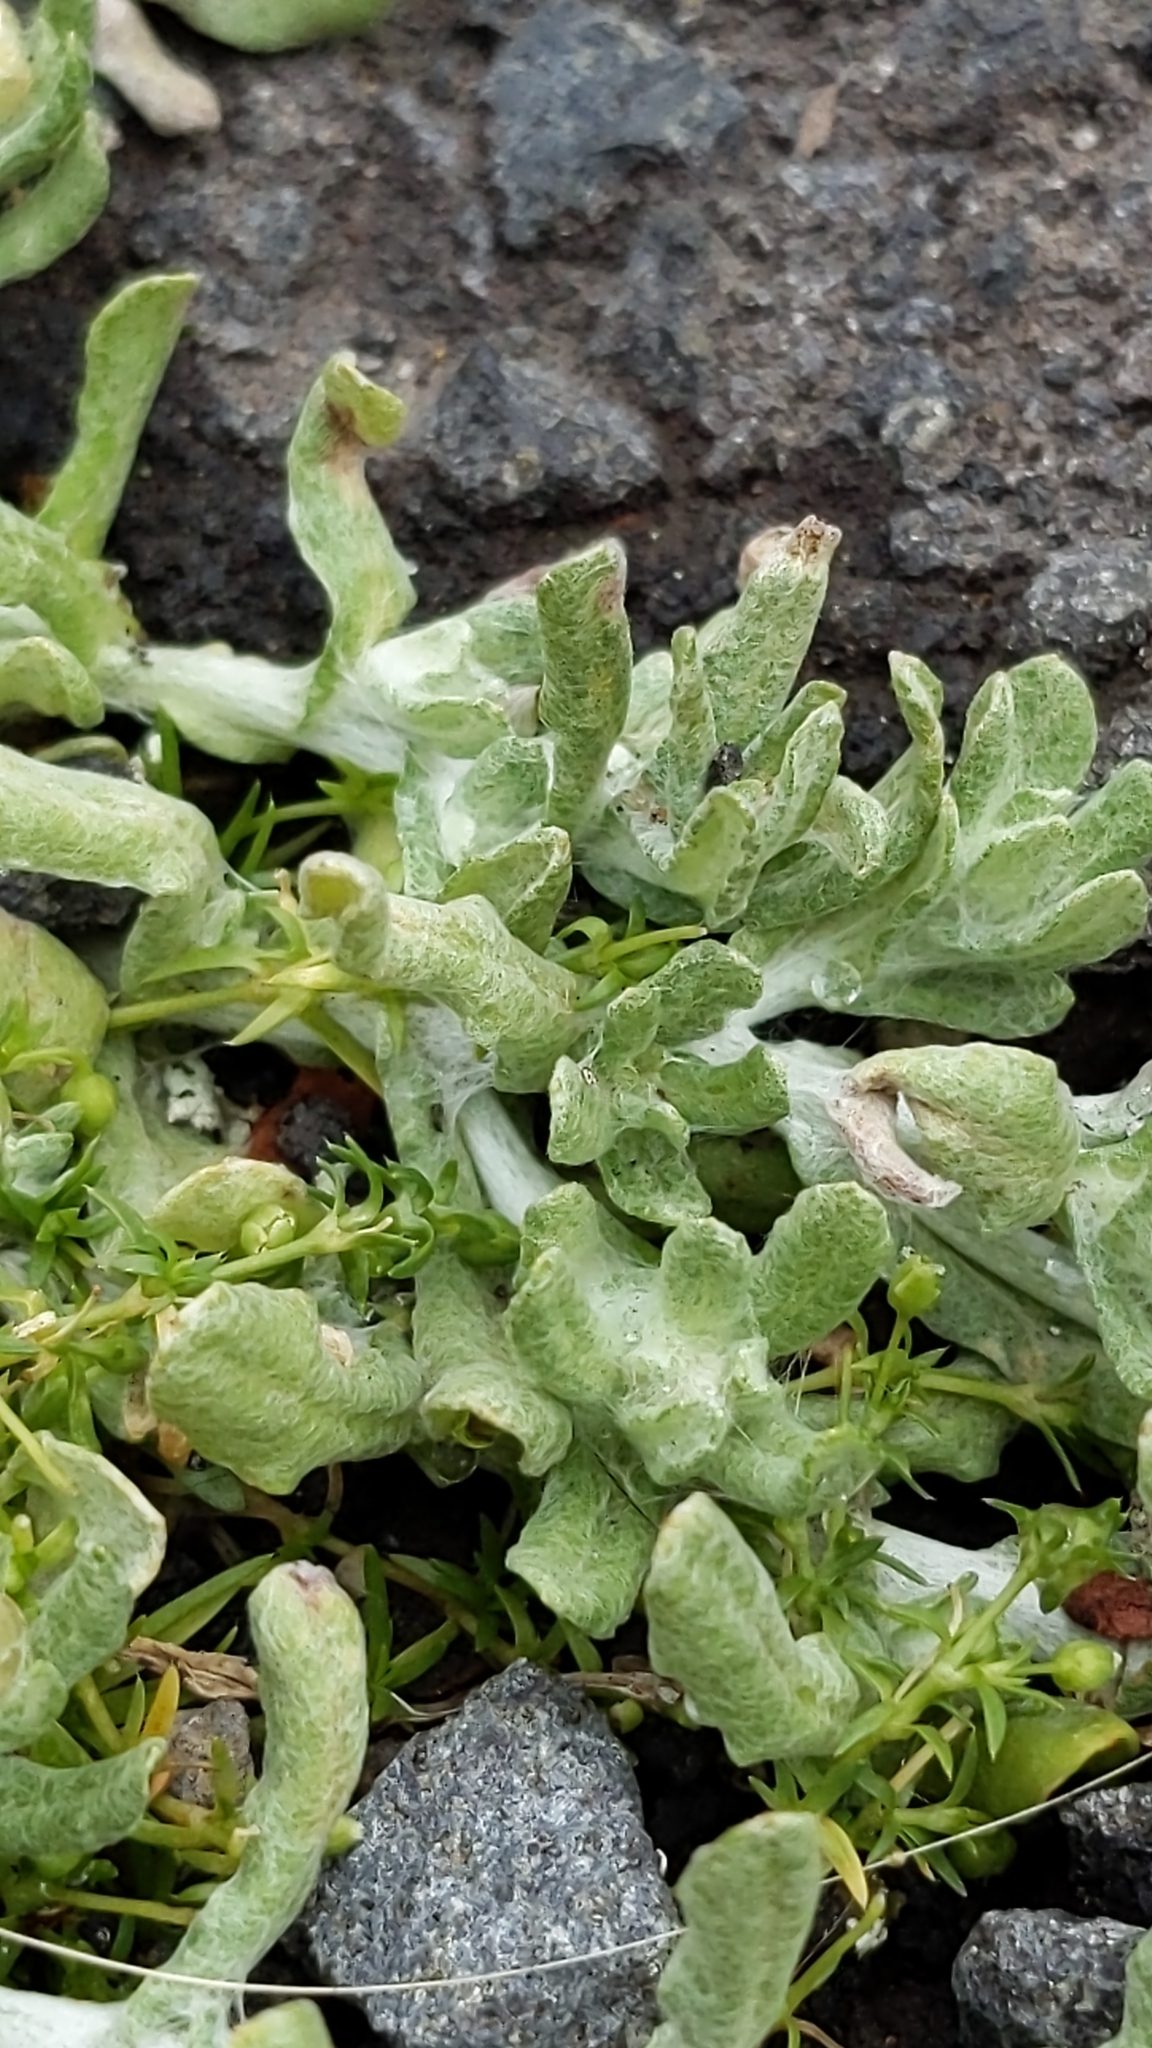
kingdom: Plantae
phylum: Tracheophyta
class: Magnoliopsida
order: Asterales
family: Asteraceae
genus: Helichrysum
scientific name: Helichrysum luteoalbum
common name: Daisy
